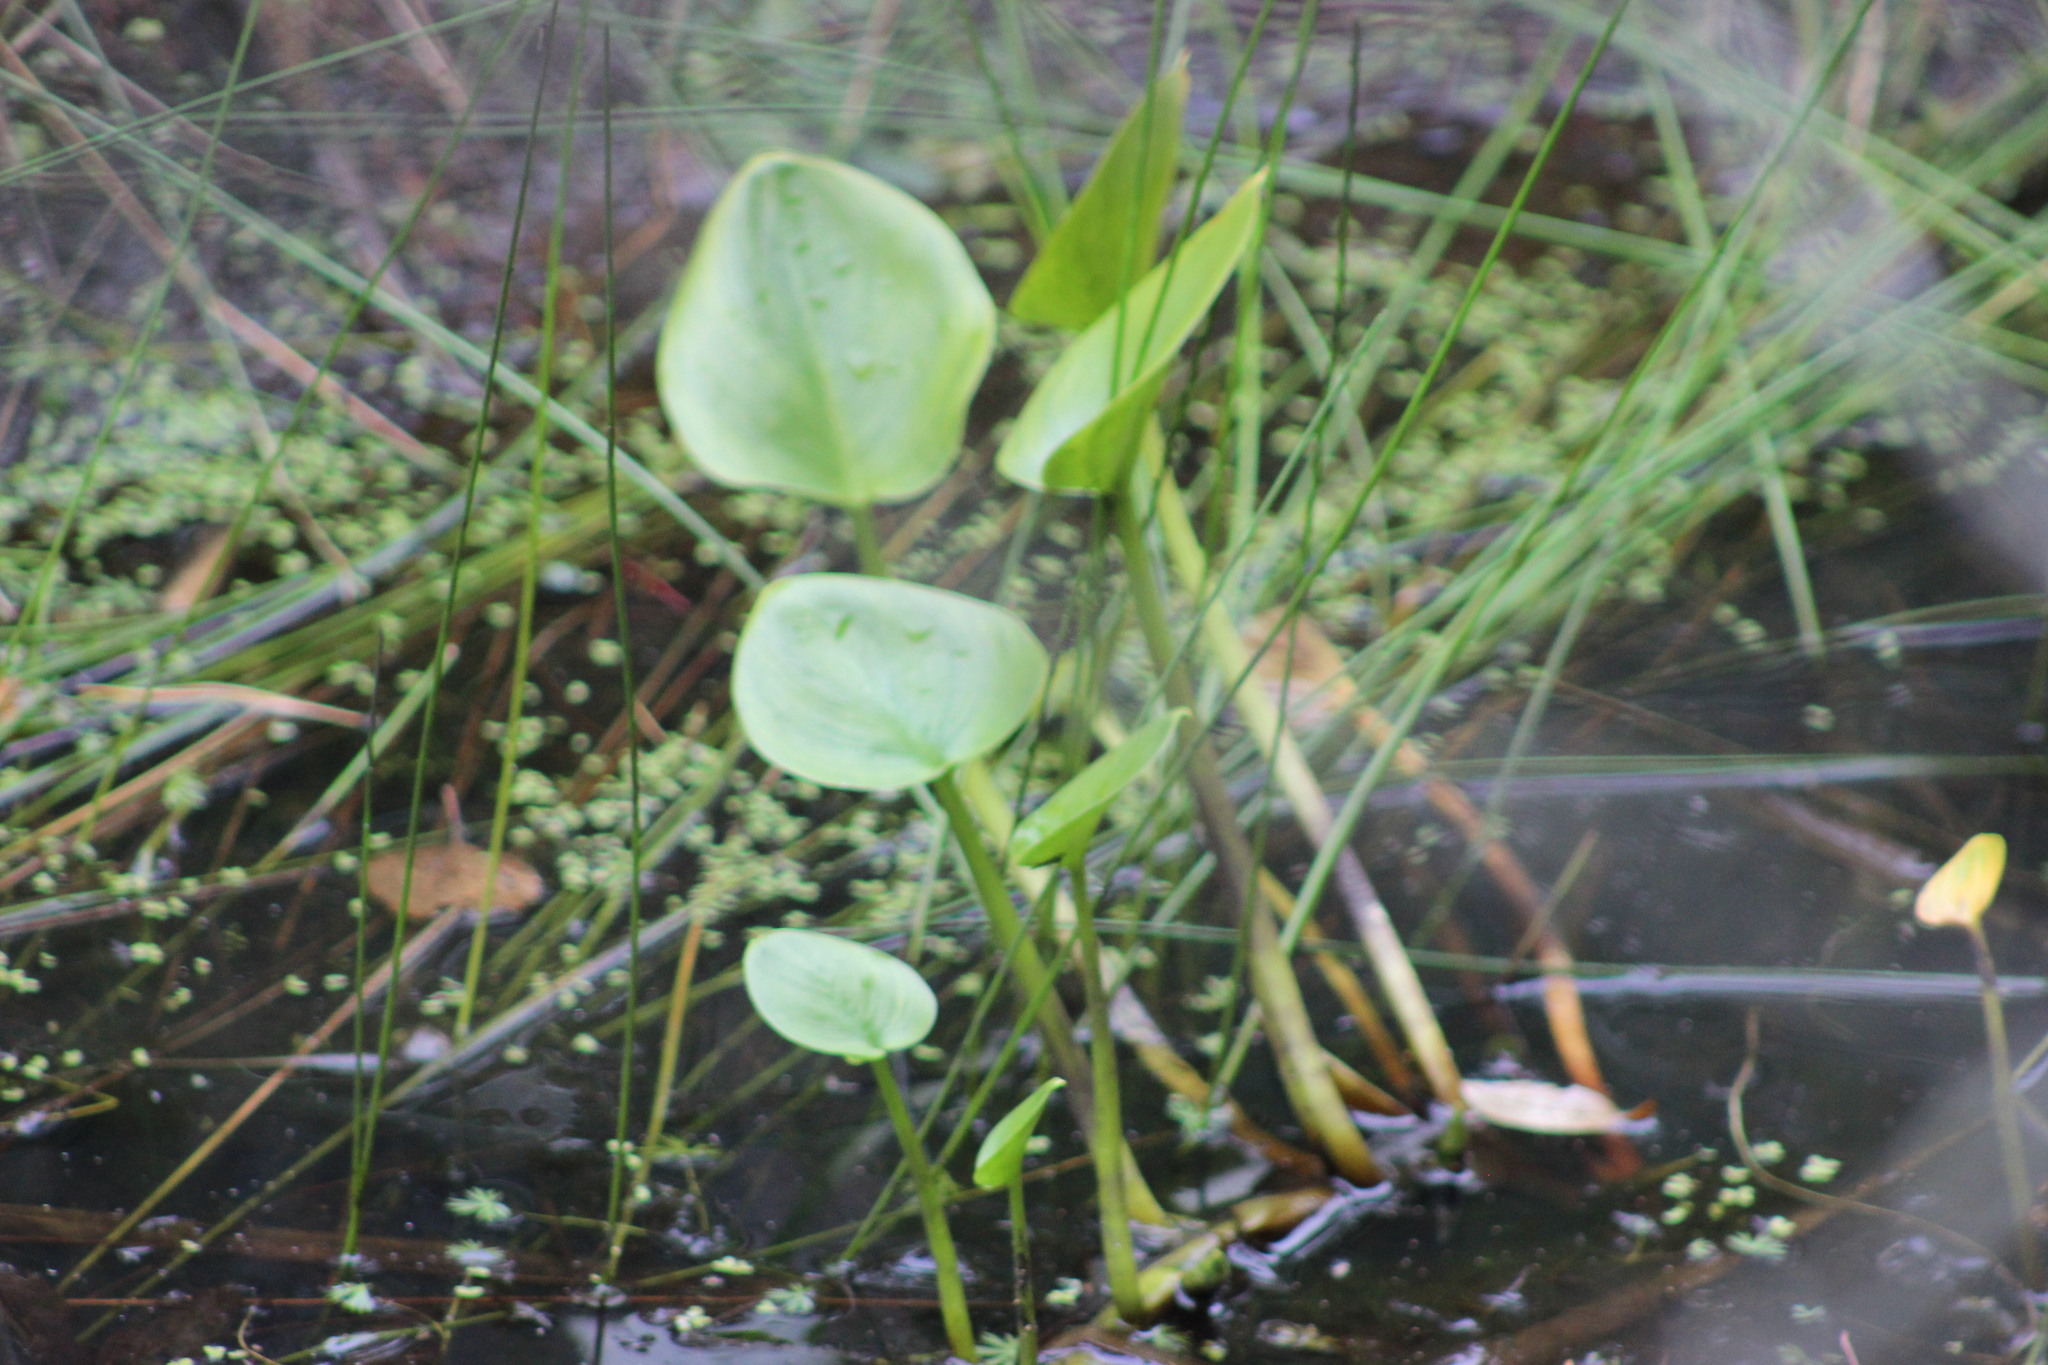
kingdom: Plantae
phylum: Tracheophyta
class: Liliopsida
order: Alismatales
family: Araceae
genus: Calla
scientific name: Calla palustris
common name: Bog arum
